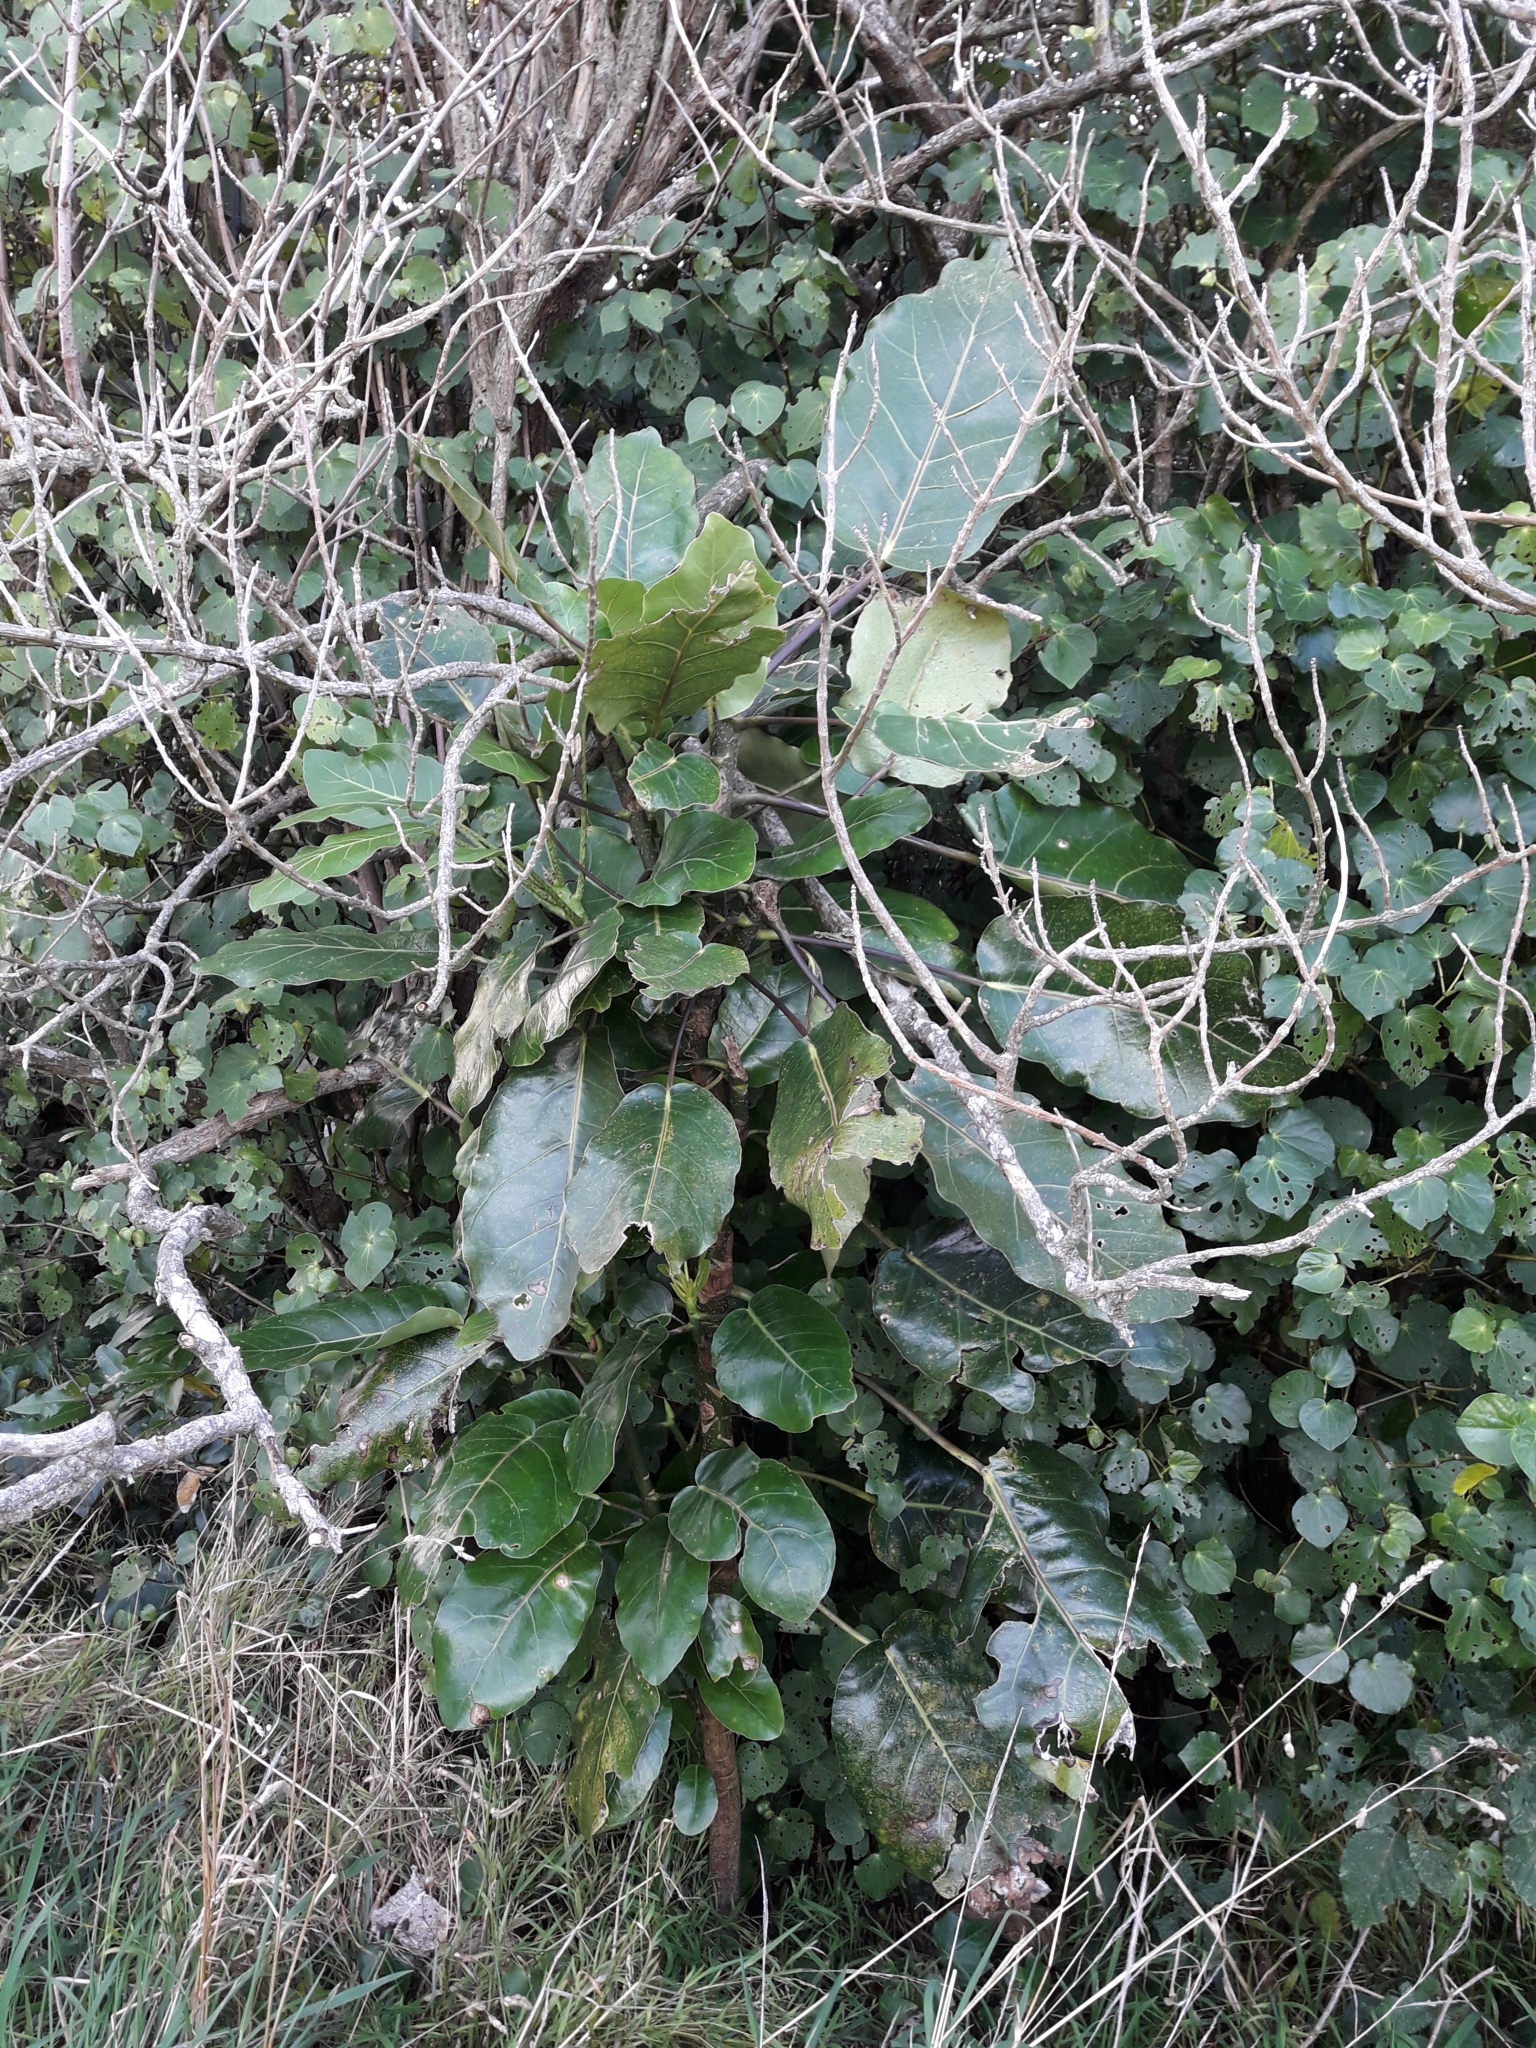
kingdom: Plantae
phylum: Tracheophyta
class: Magnoliopsida
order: Apiales
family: Araliaceae
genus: Meryta
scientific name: Meryta sinclairii
